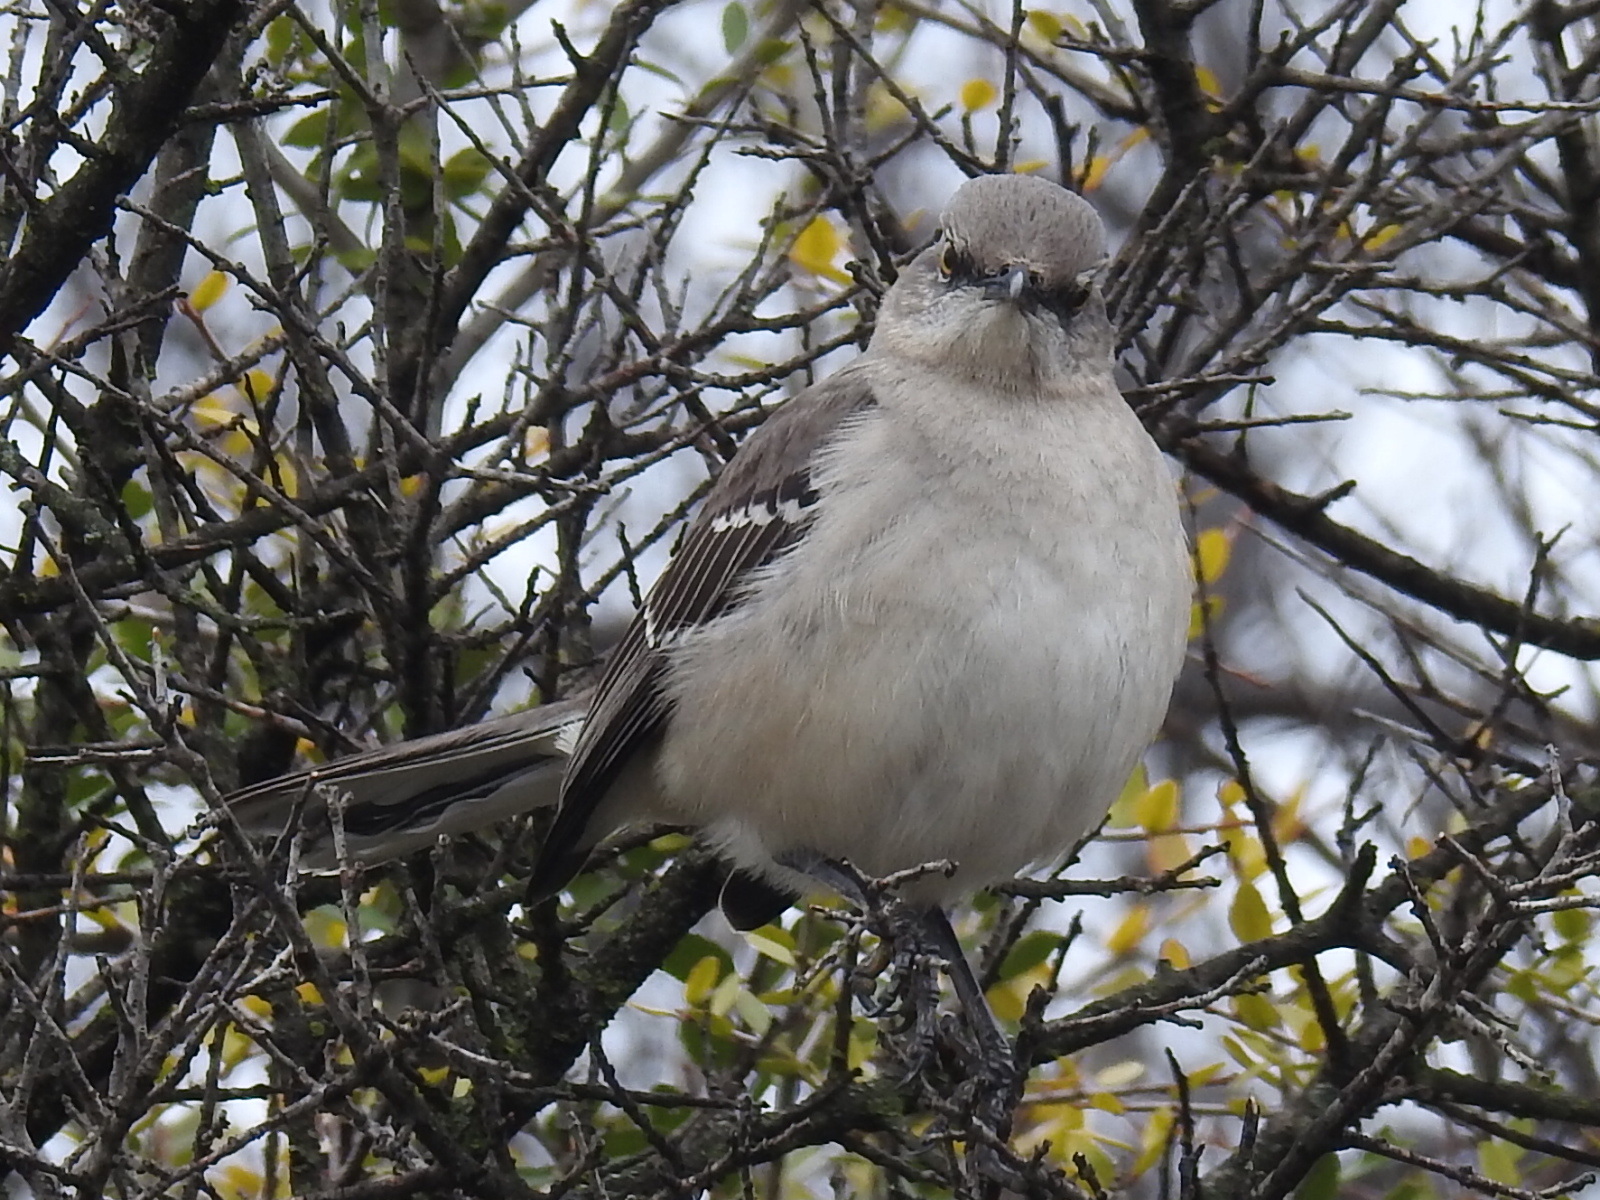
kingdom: Animalia
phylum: Chordata
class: Aves
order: Passeriformes
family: Mimidae
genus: Mimus
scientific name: Mimus polyglottos
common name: Northern mockingbird
